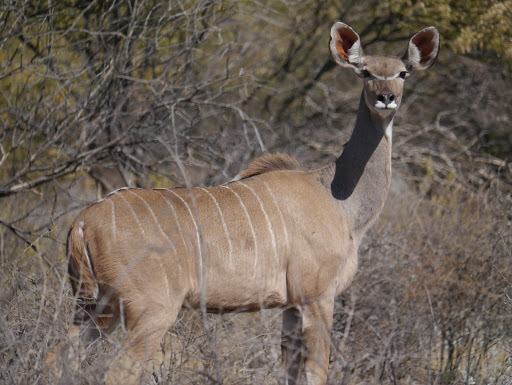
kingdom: Animalia
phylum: Chordata
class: Mammalia
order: Artiodactyla
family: Bovidae
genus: Tragelaphus
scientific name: Tragelaphus strepsiceros
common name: Greater kudu
